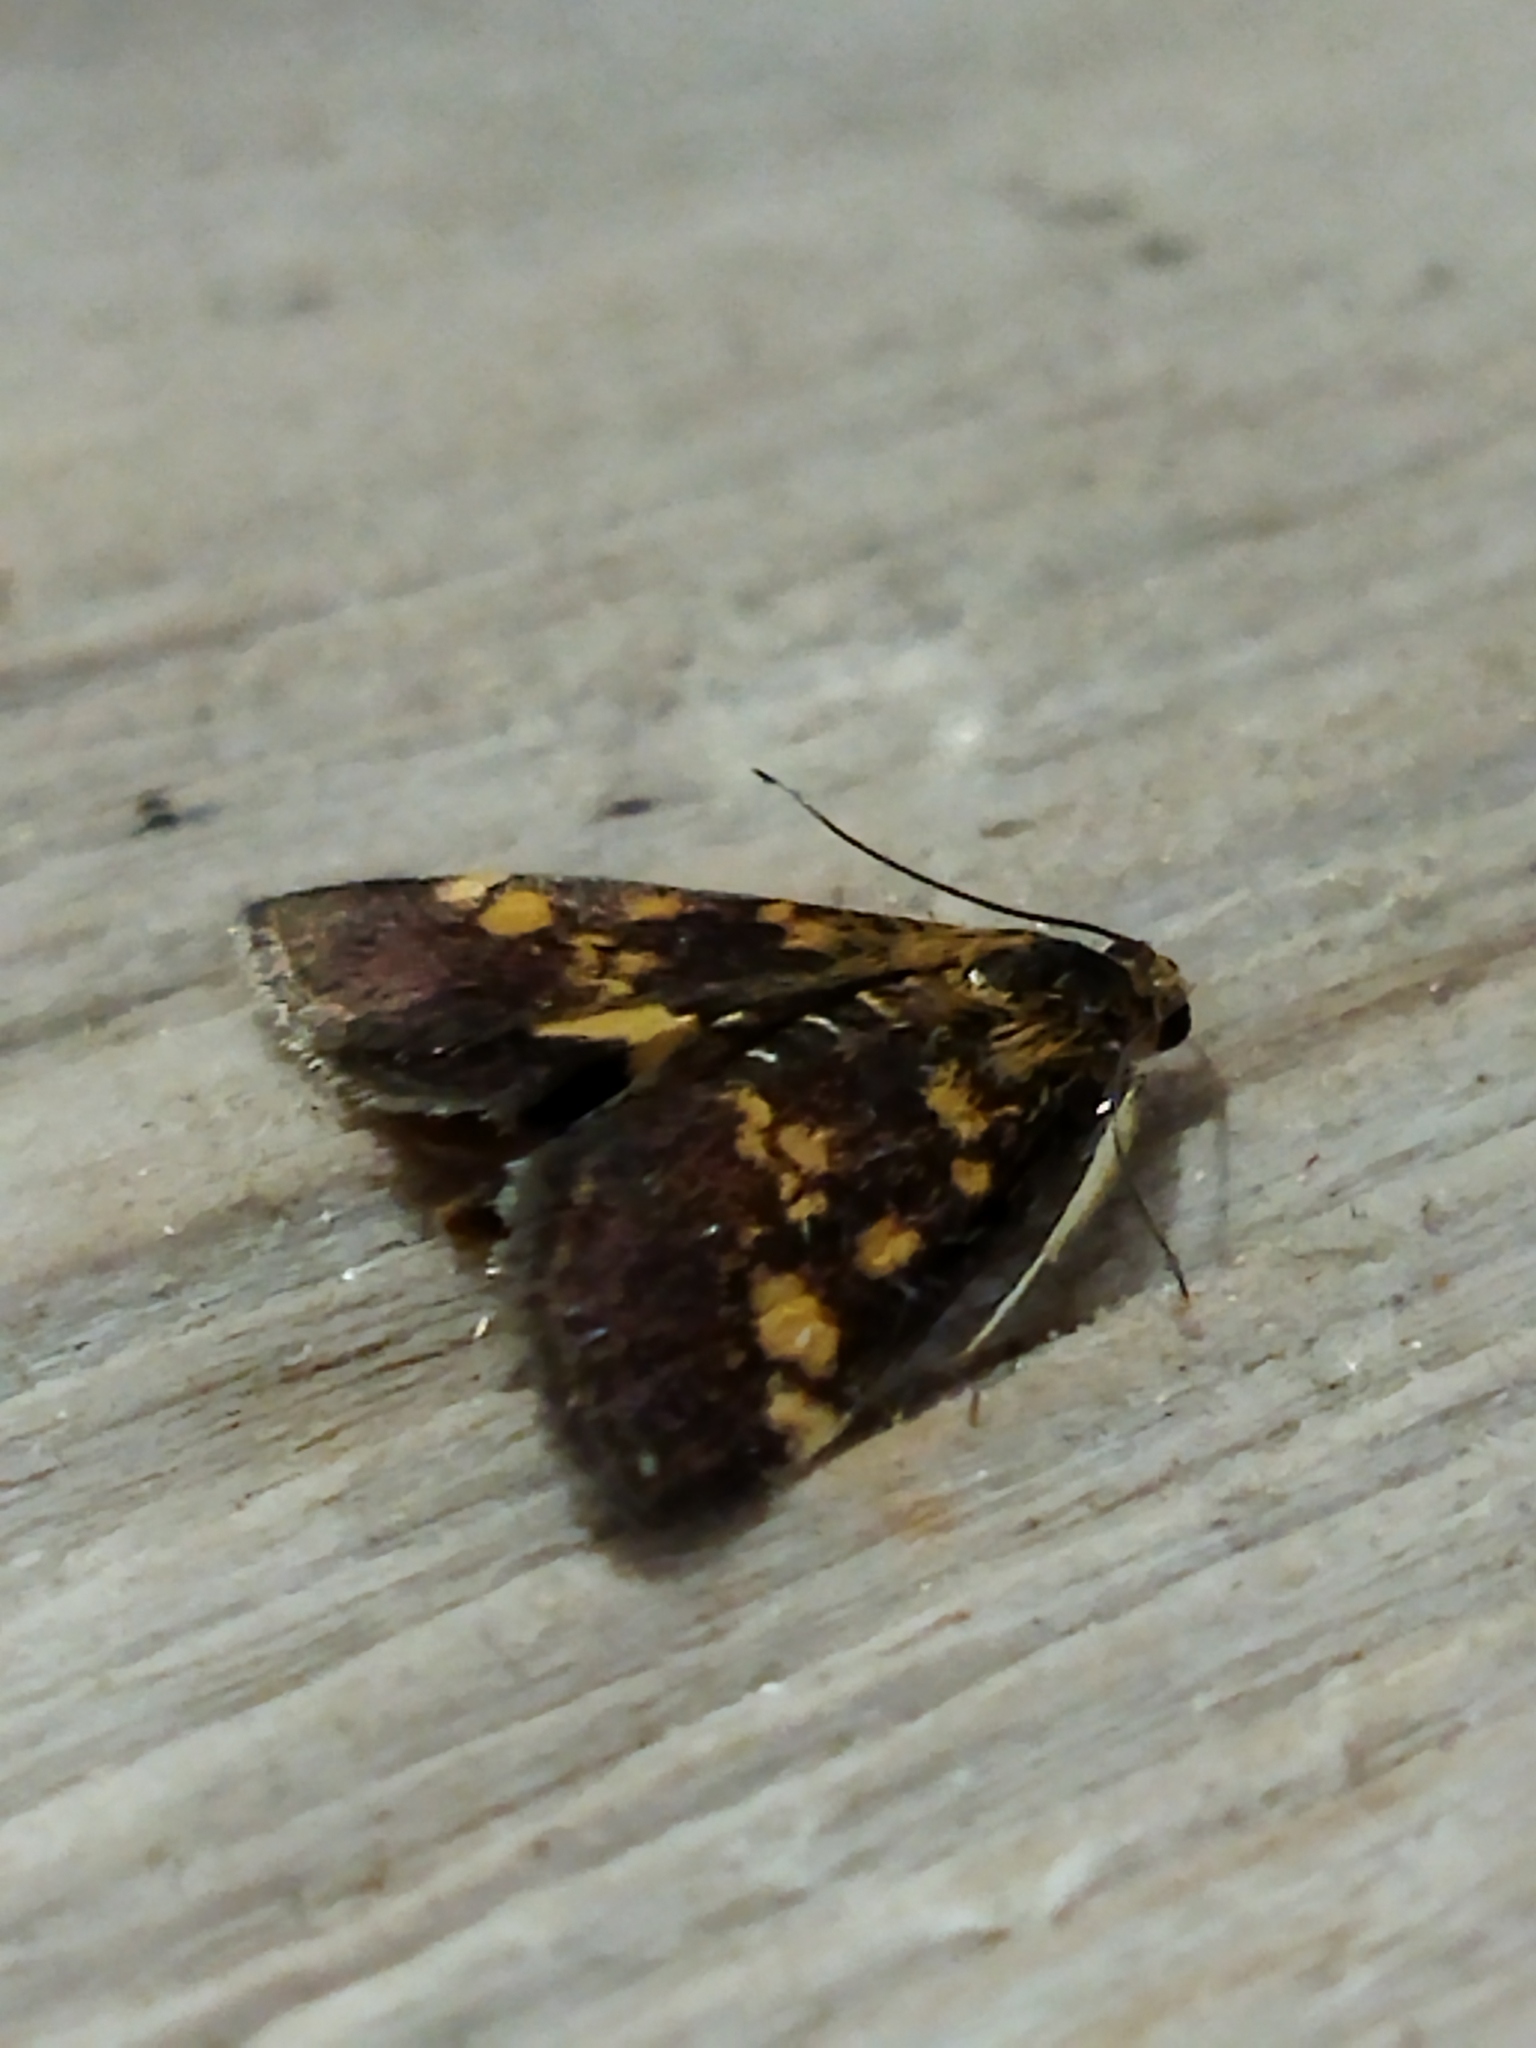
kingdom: Animalia
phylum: Arthropoda
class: Insecta
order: Lepidoptera
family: Crambidae
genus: Pyrausta
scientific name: Pyrausta aurata
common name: Small purple & gold
